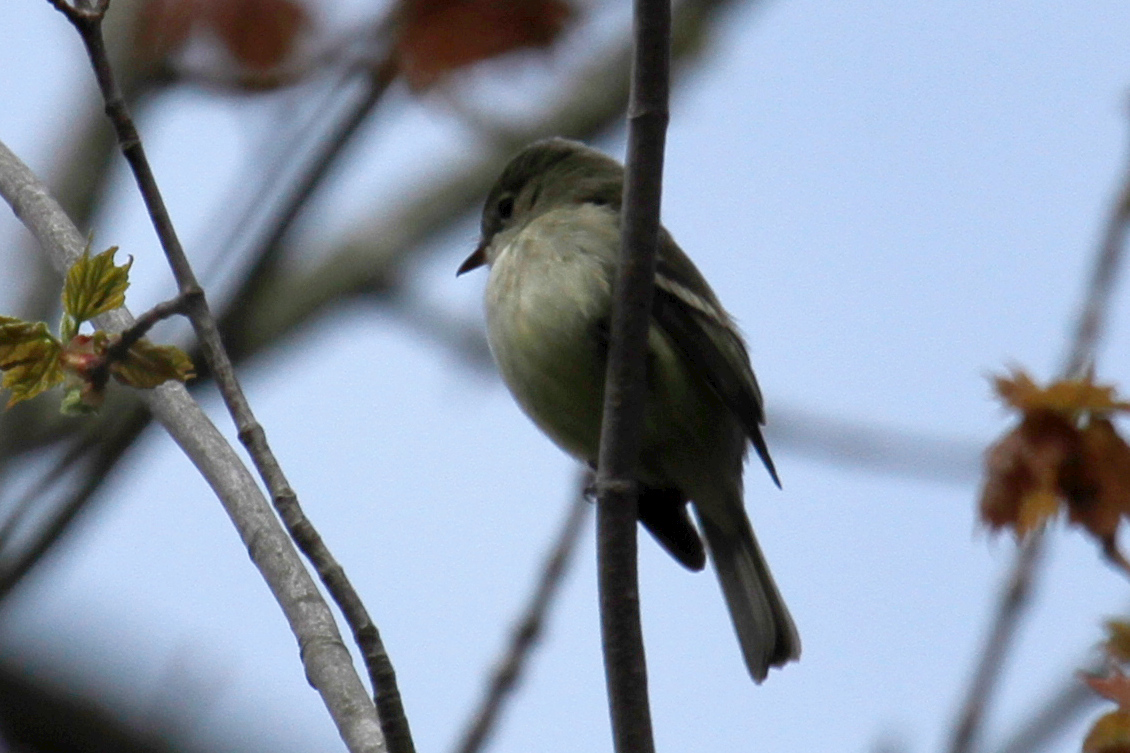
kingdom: Animalia
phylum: Chordata
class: Aves
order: Passeriformes
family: Tyrannidae
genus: Empidonax
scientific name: Empidonax minimus
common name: Least flycatcher
